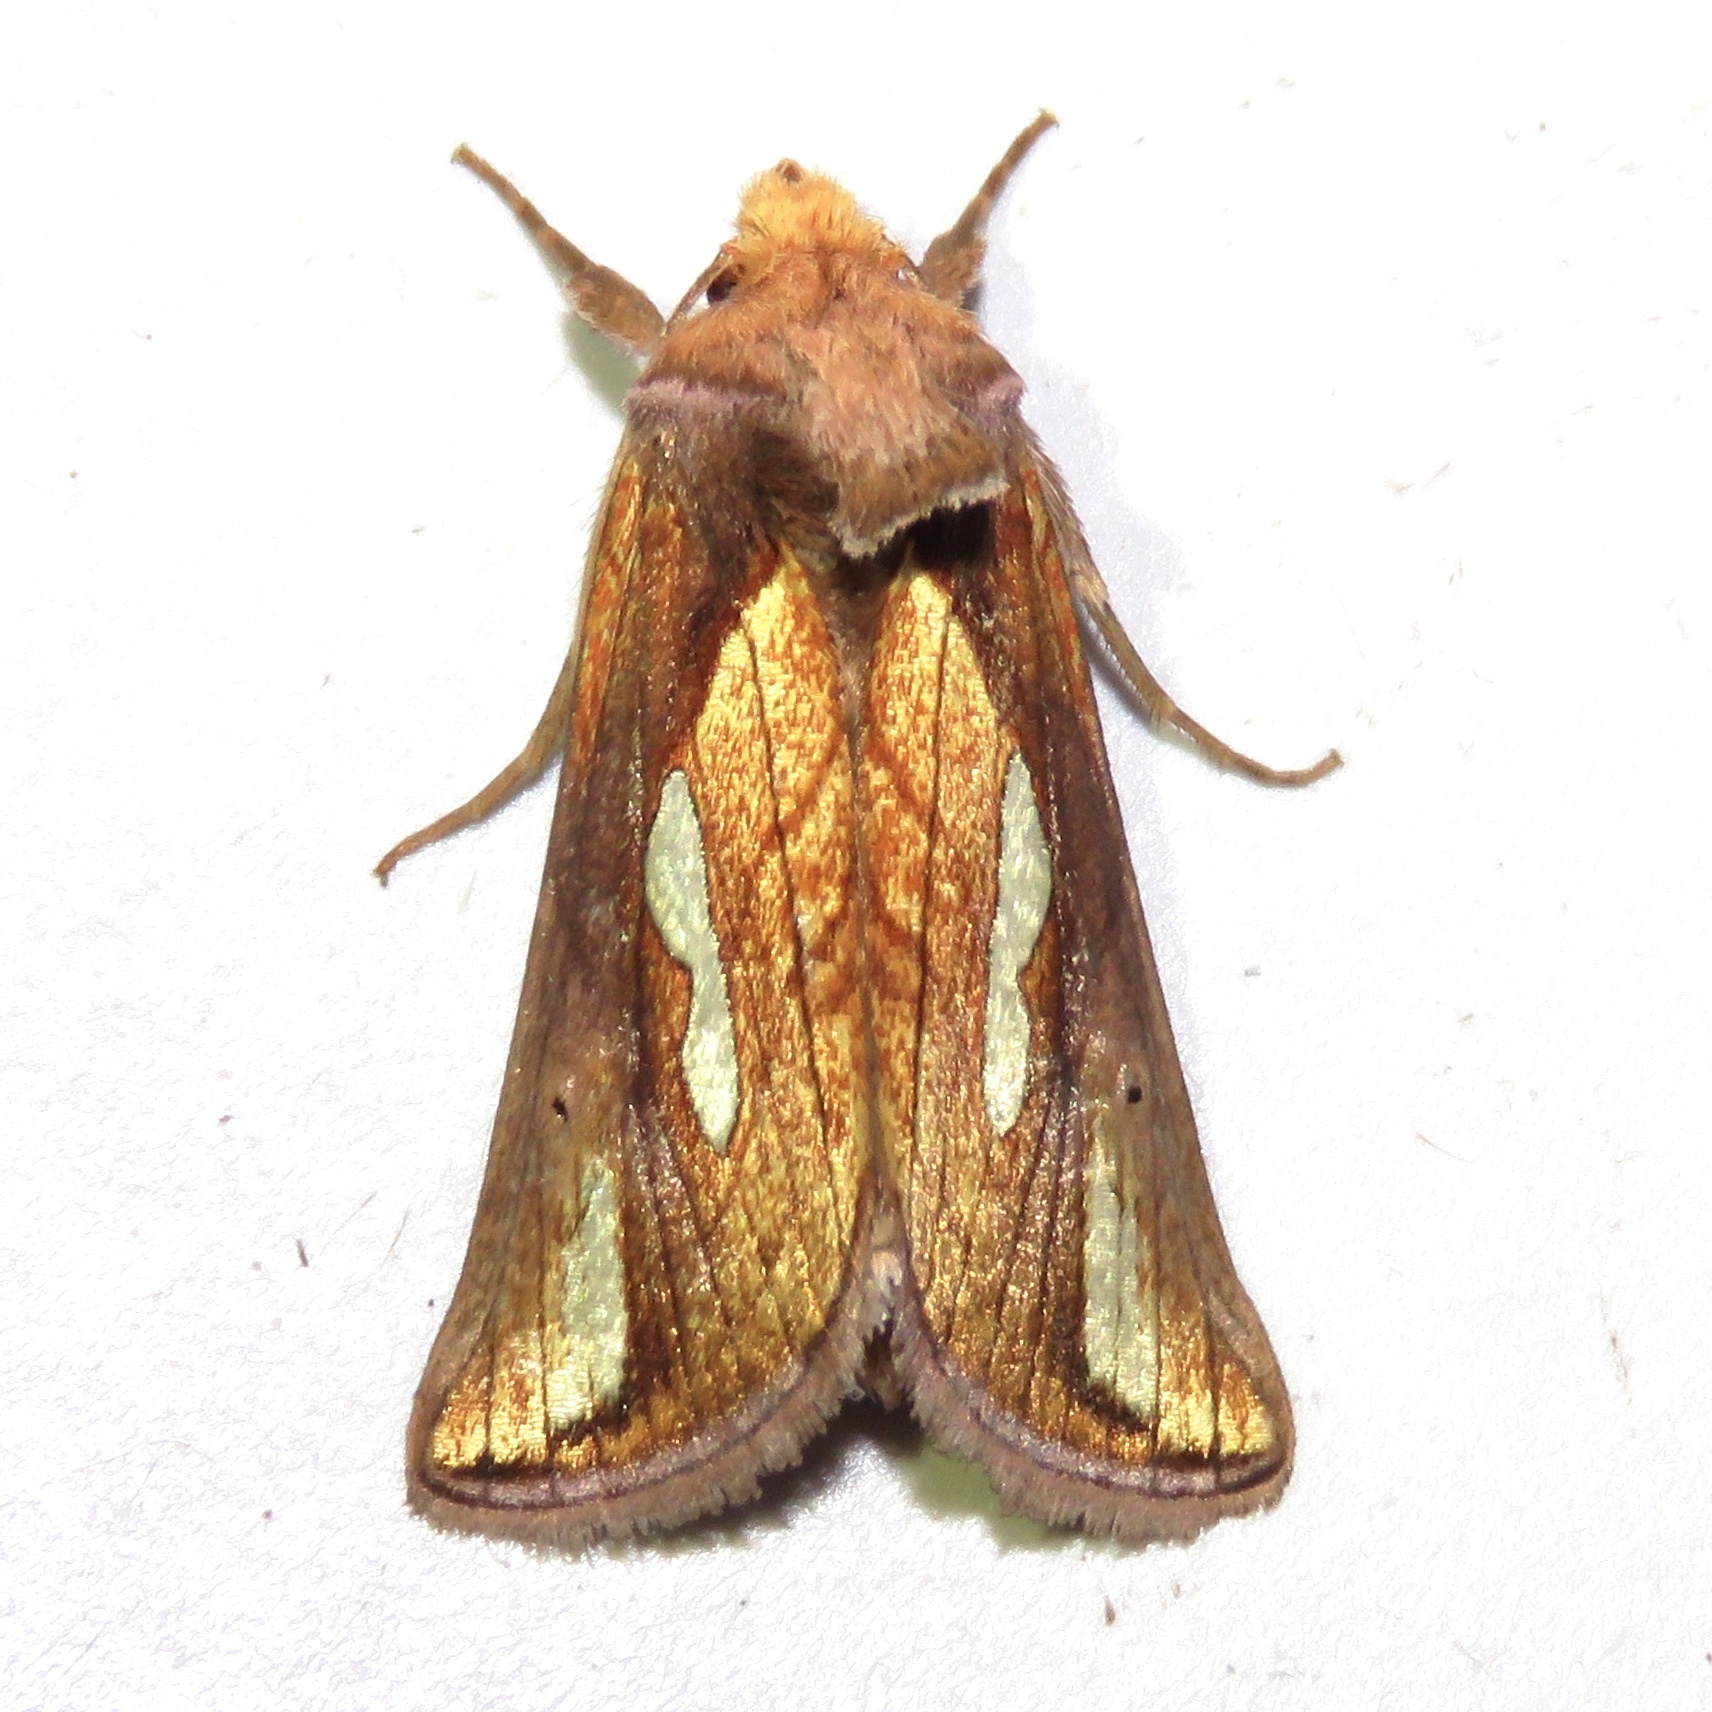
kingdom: Animalia
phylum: Arthropoda
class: Insecta
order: Lepidoptera
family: Noctuidae
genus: Plusia
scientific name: Plusia contexta
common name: Connected looper moth
